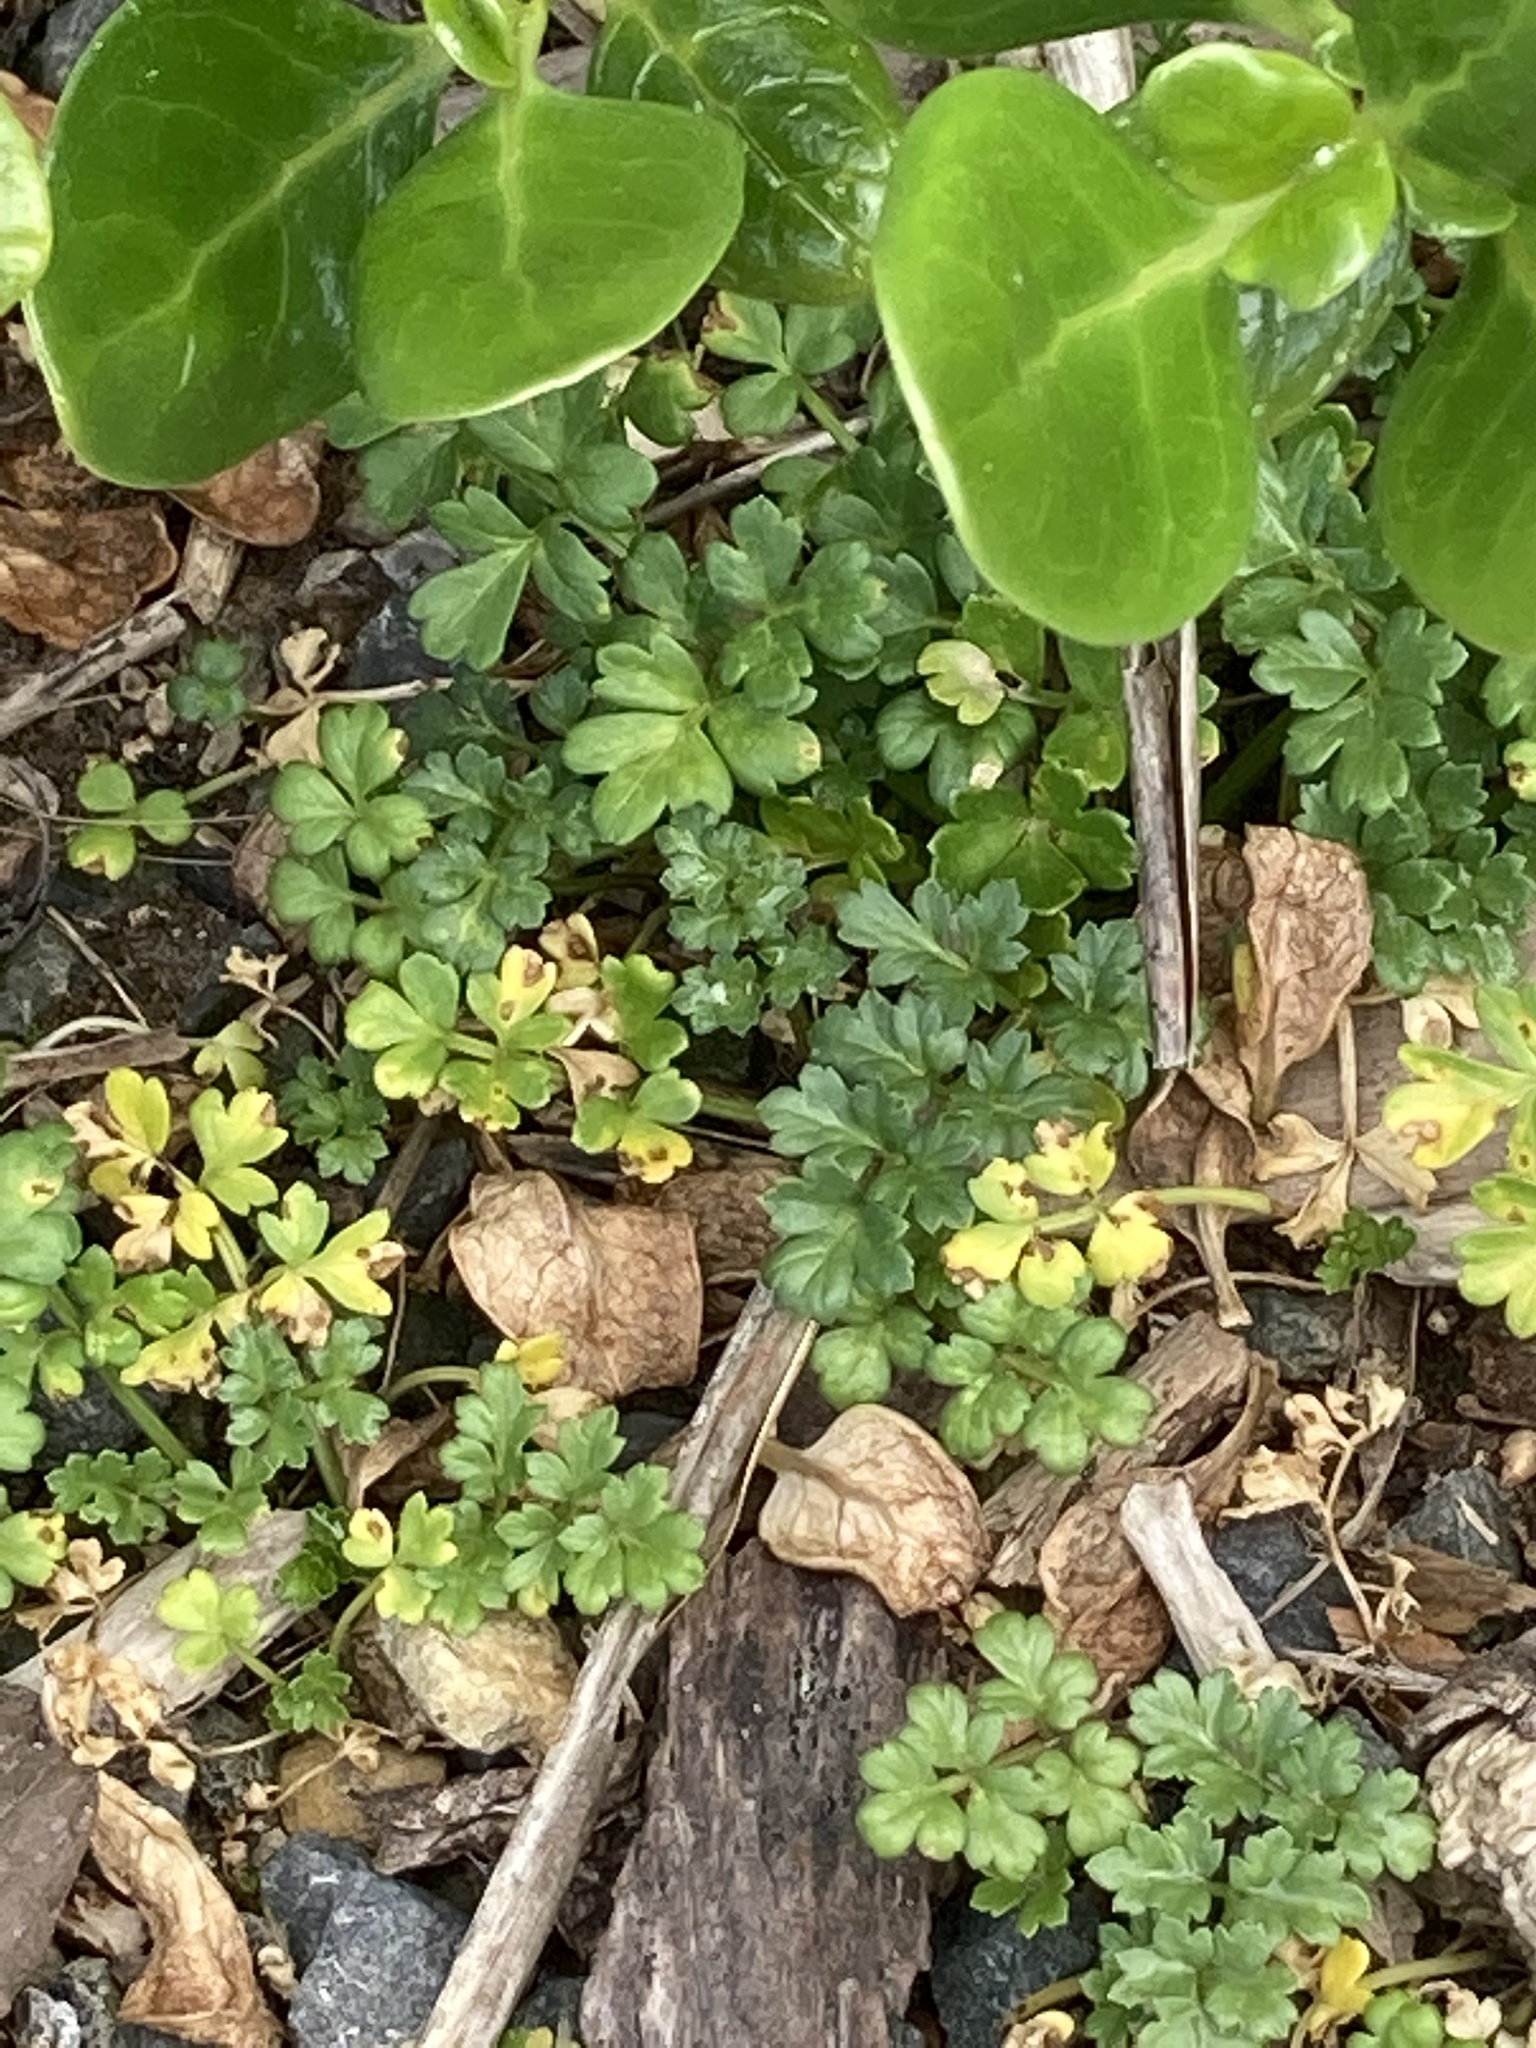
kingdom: Plantae
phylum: Tracheophyta
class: Magnoliopsida
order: Apiales
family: Apiaceae
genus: Apium
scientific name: Apium prostratum
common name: Prostrate marshwort
